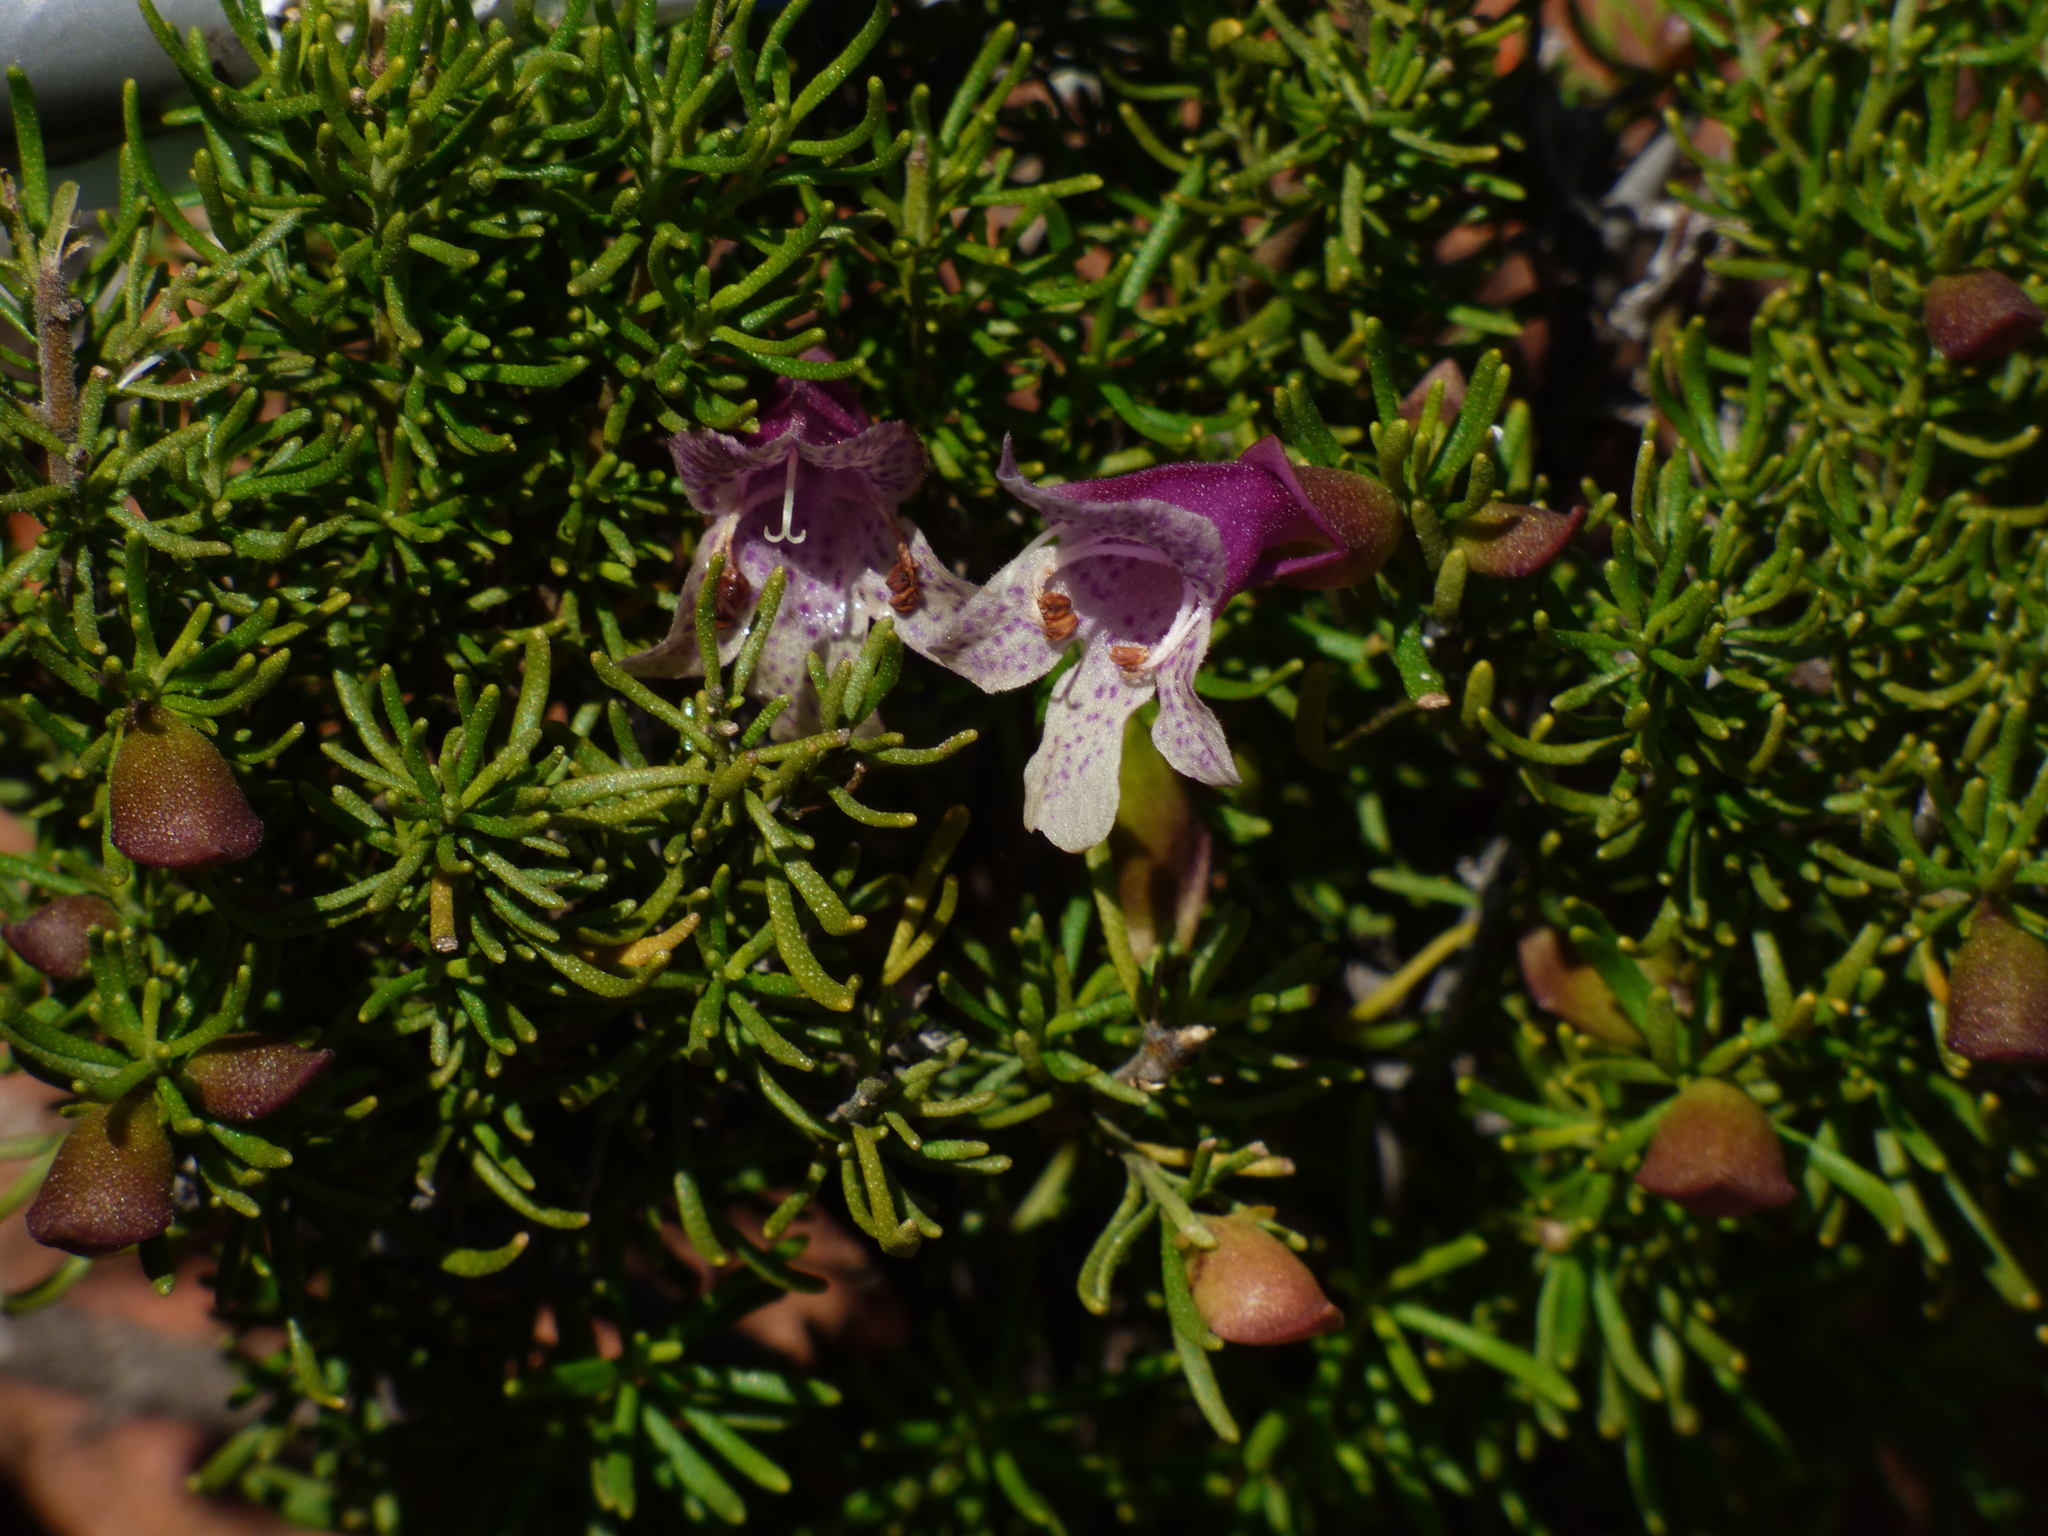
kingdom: Plantae
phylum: Tracheophyta
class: Magnoliopsida
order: Lamiales
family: Lamiaceae
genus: Prostanthera
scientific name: Prostanthera florifera
